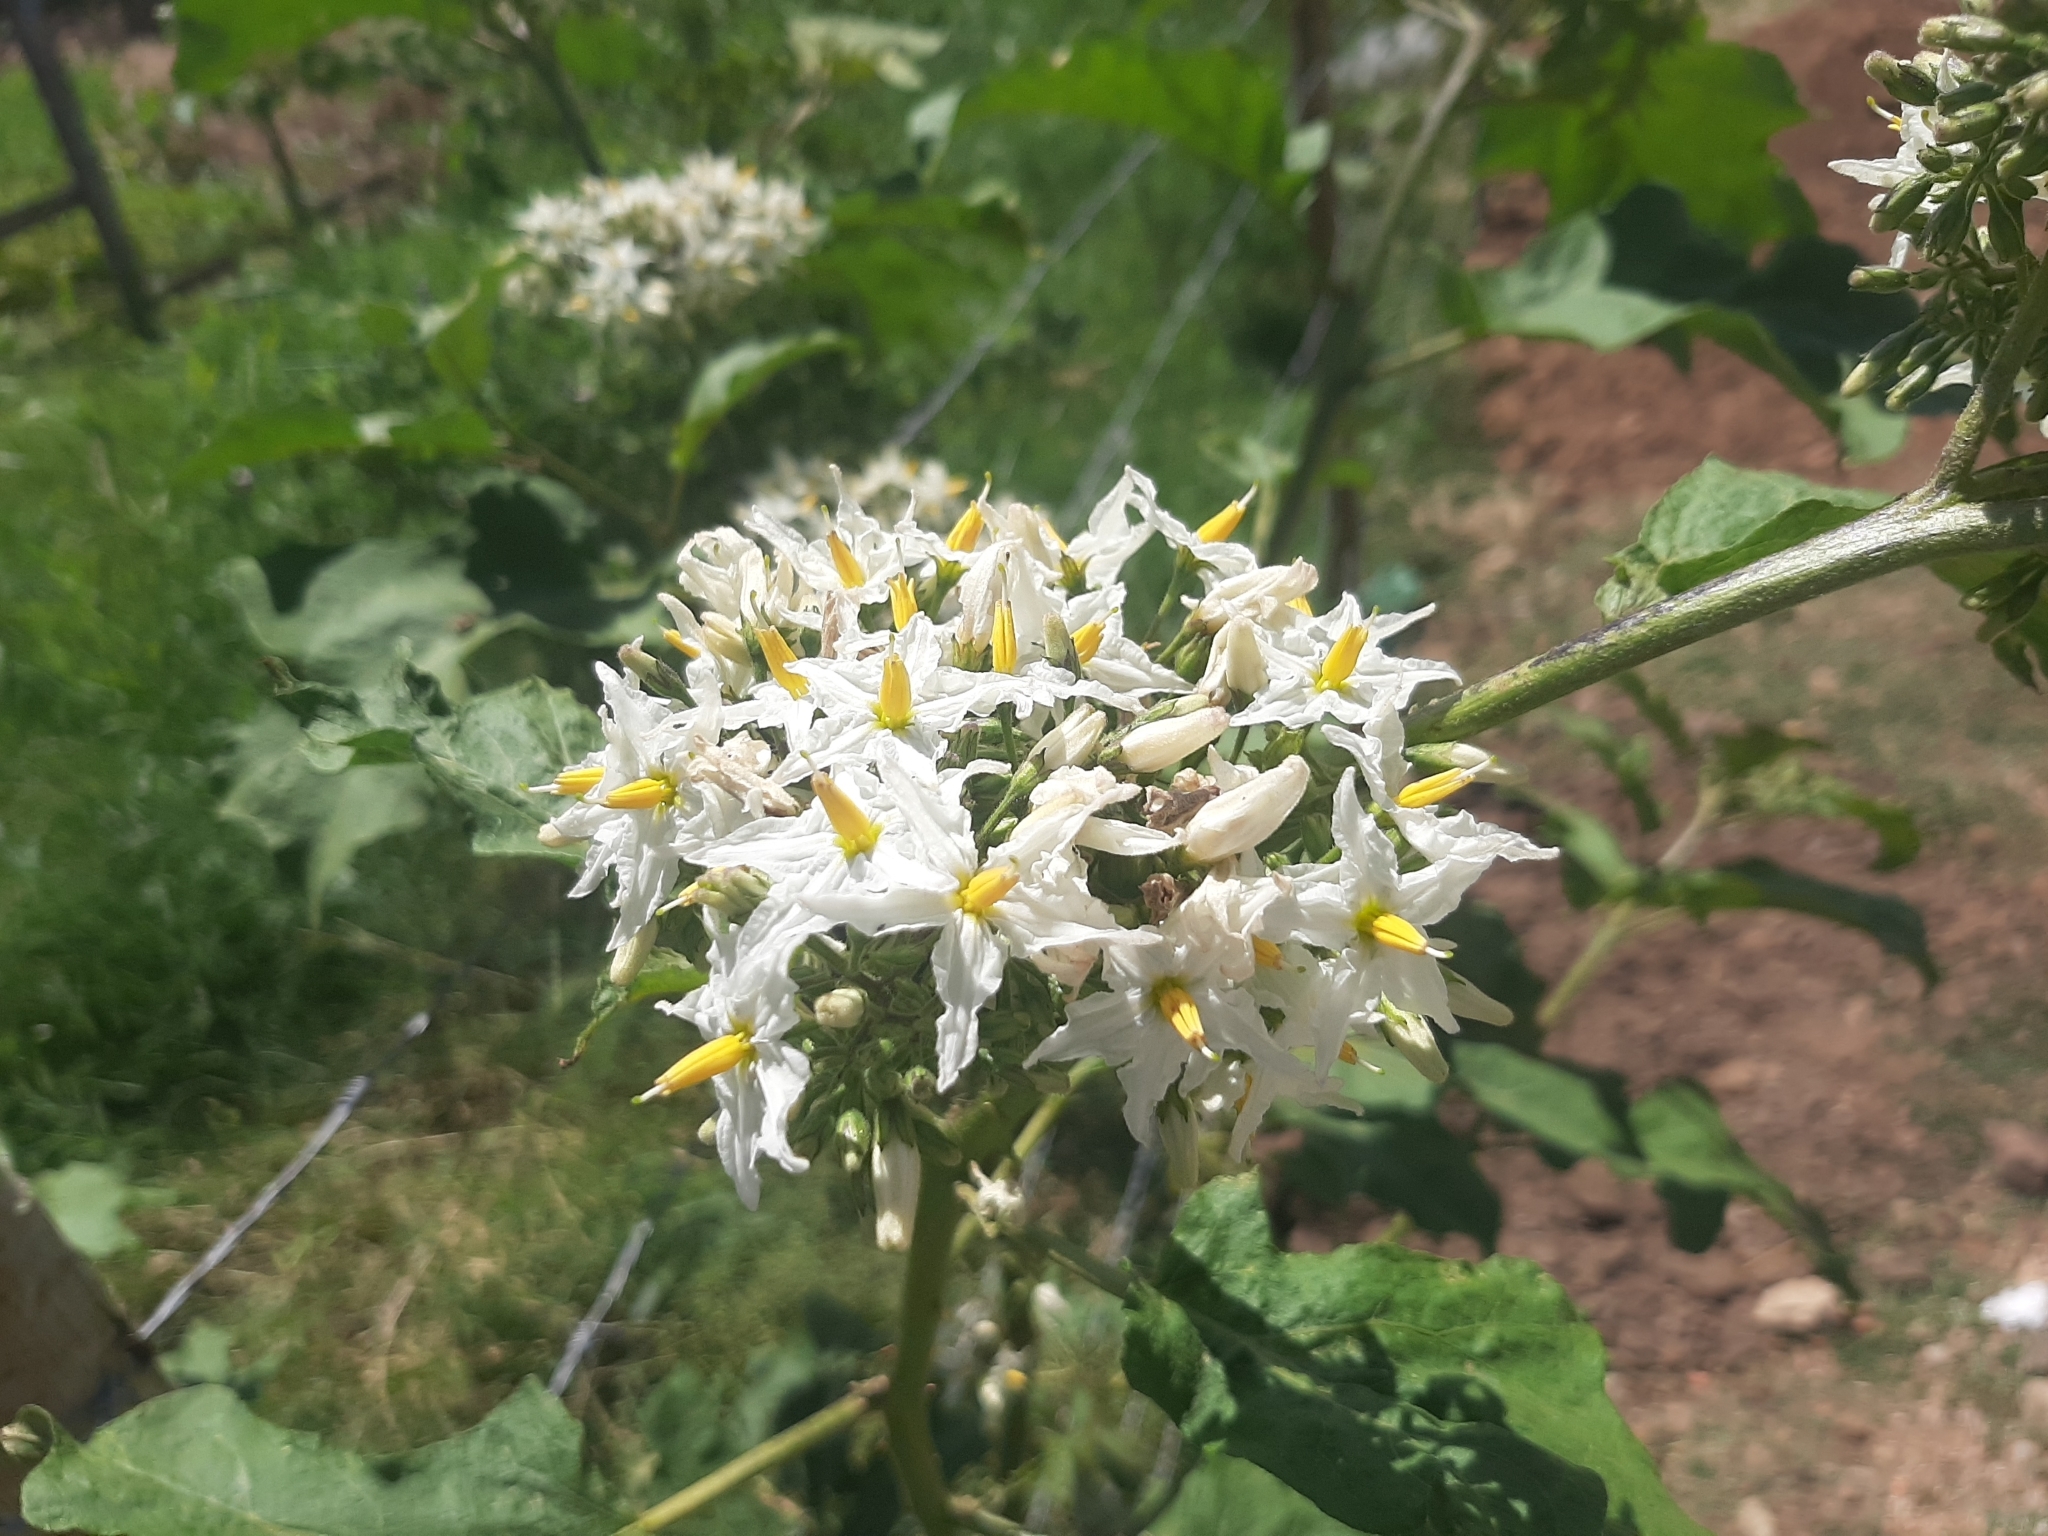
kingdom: Plantae
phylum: Tracheophyta
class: Magnoliopsida
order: Solanales
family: Solanaceae
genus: Solanum
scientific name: Solanum torvum
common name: Turkey berry
